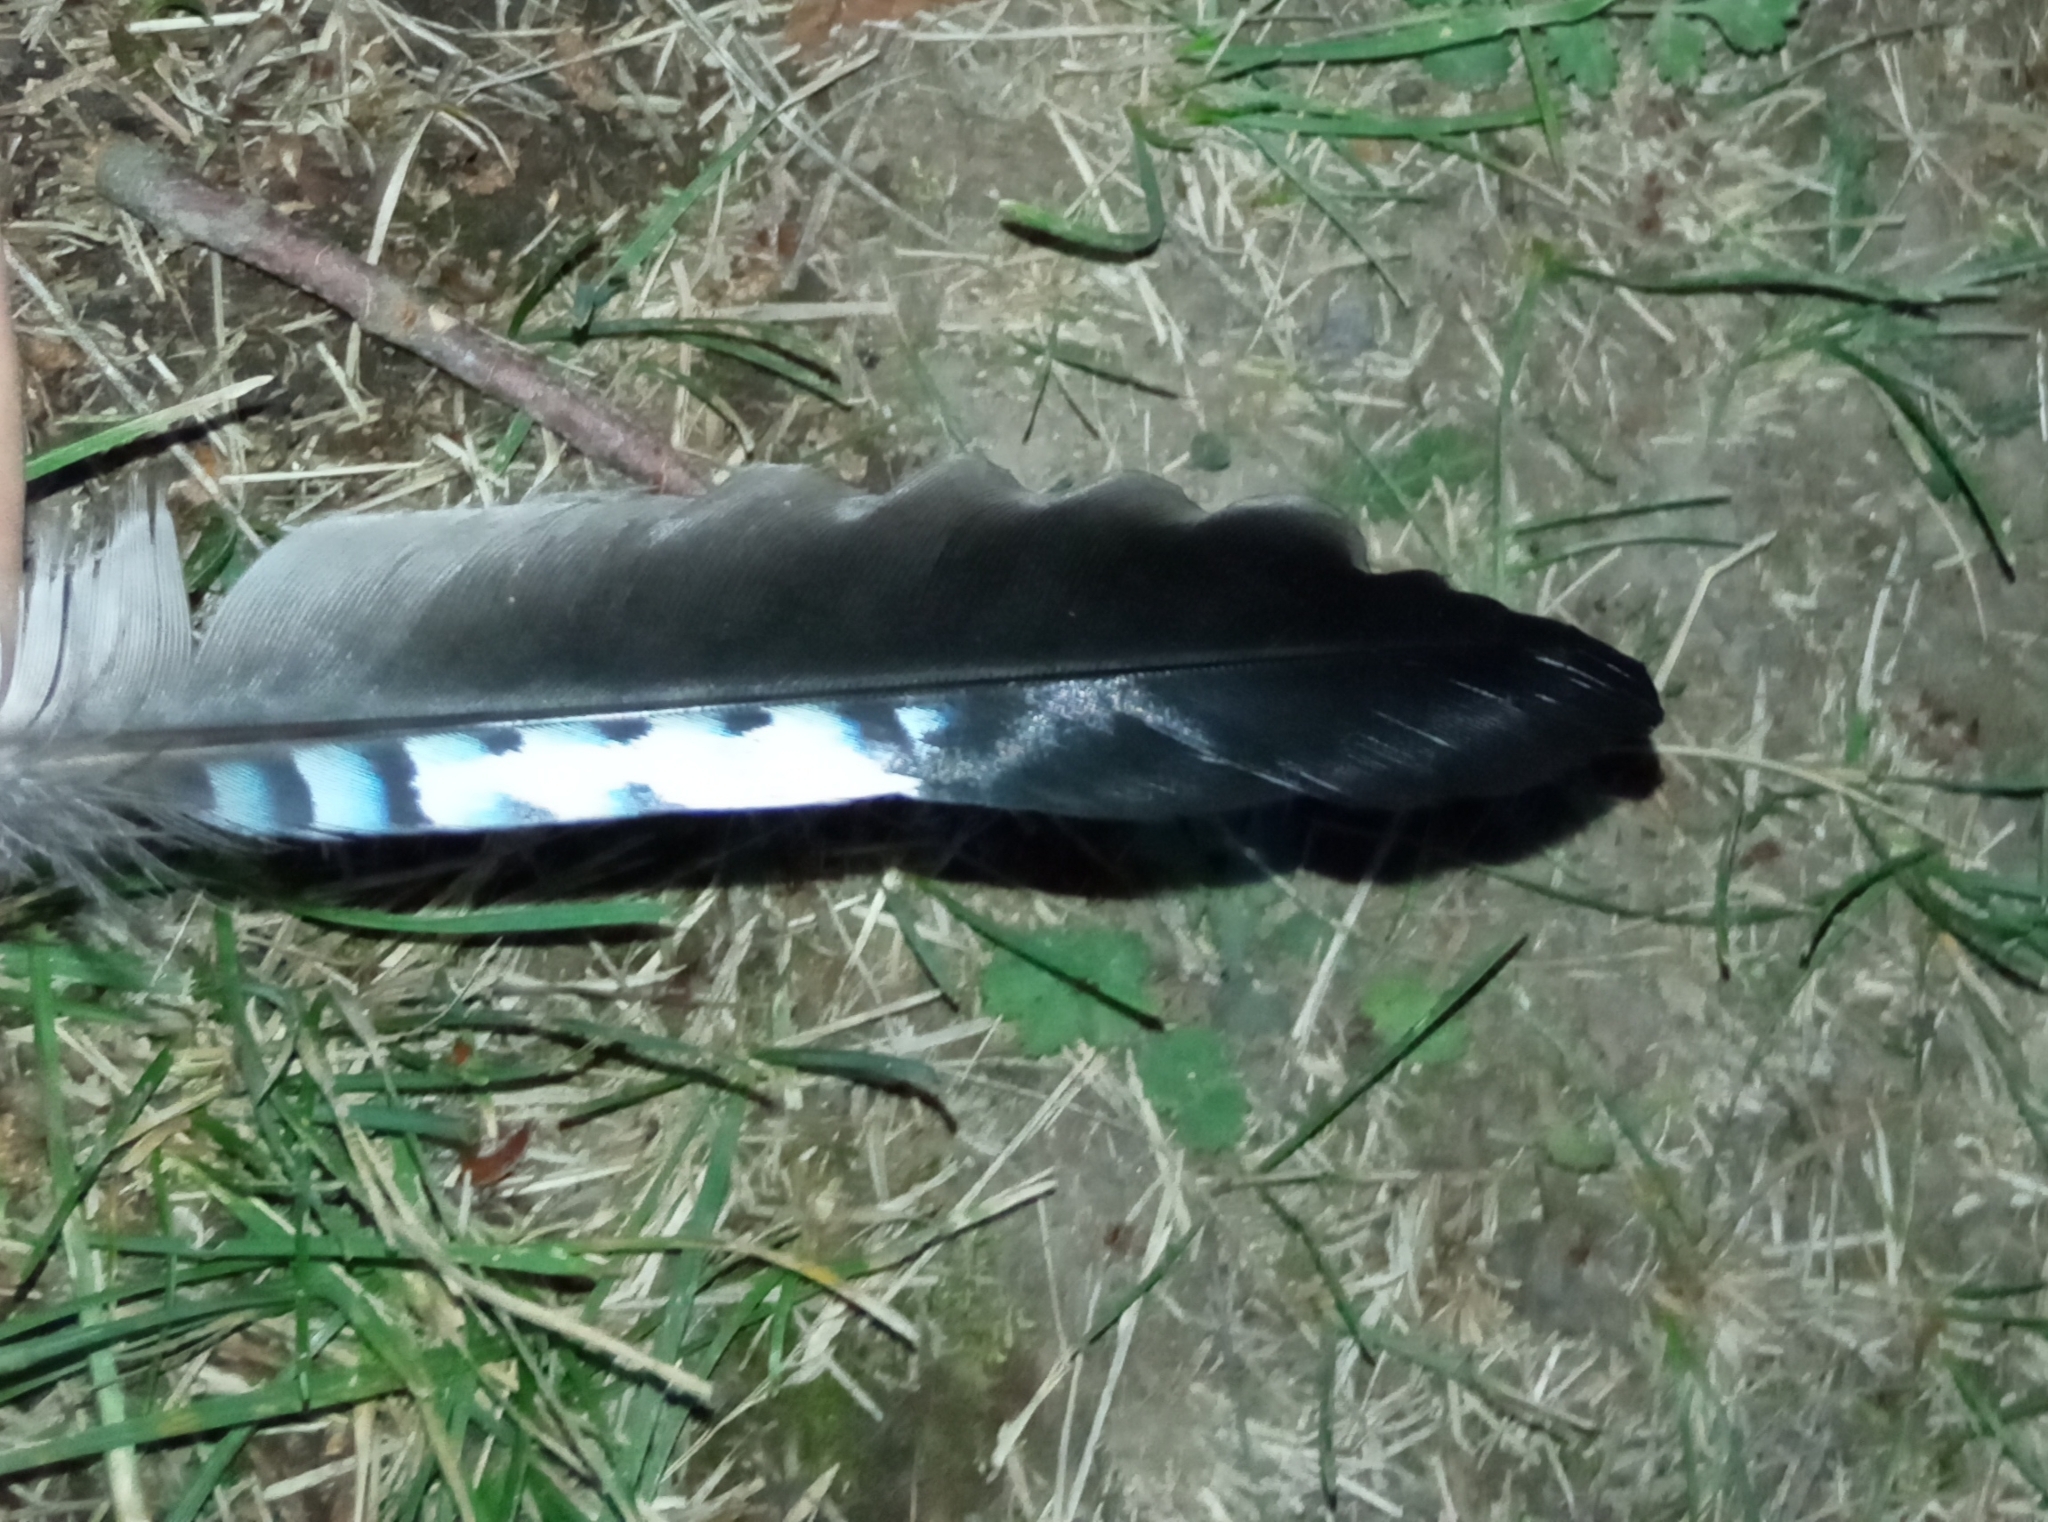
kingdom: Animalia
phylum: Chordata
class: Aves
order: Passeriformes
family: Corvidae
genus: Garrulus
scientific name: Garrulus glandarius
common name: Eurasian jay
